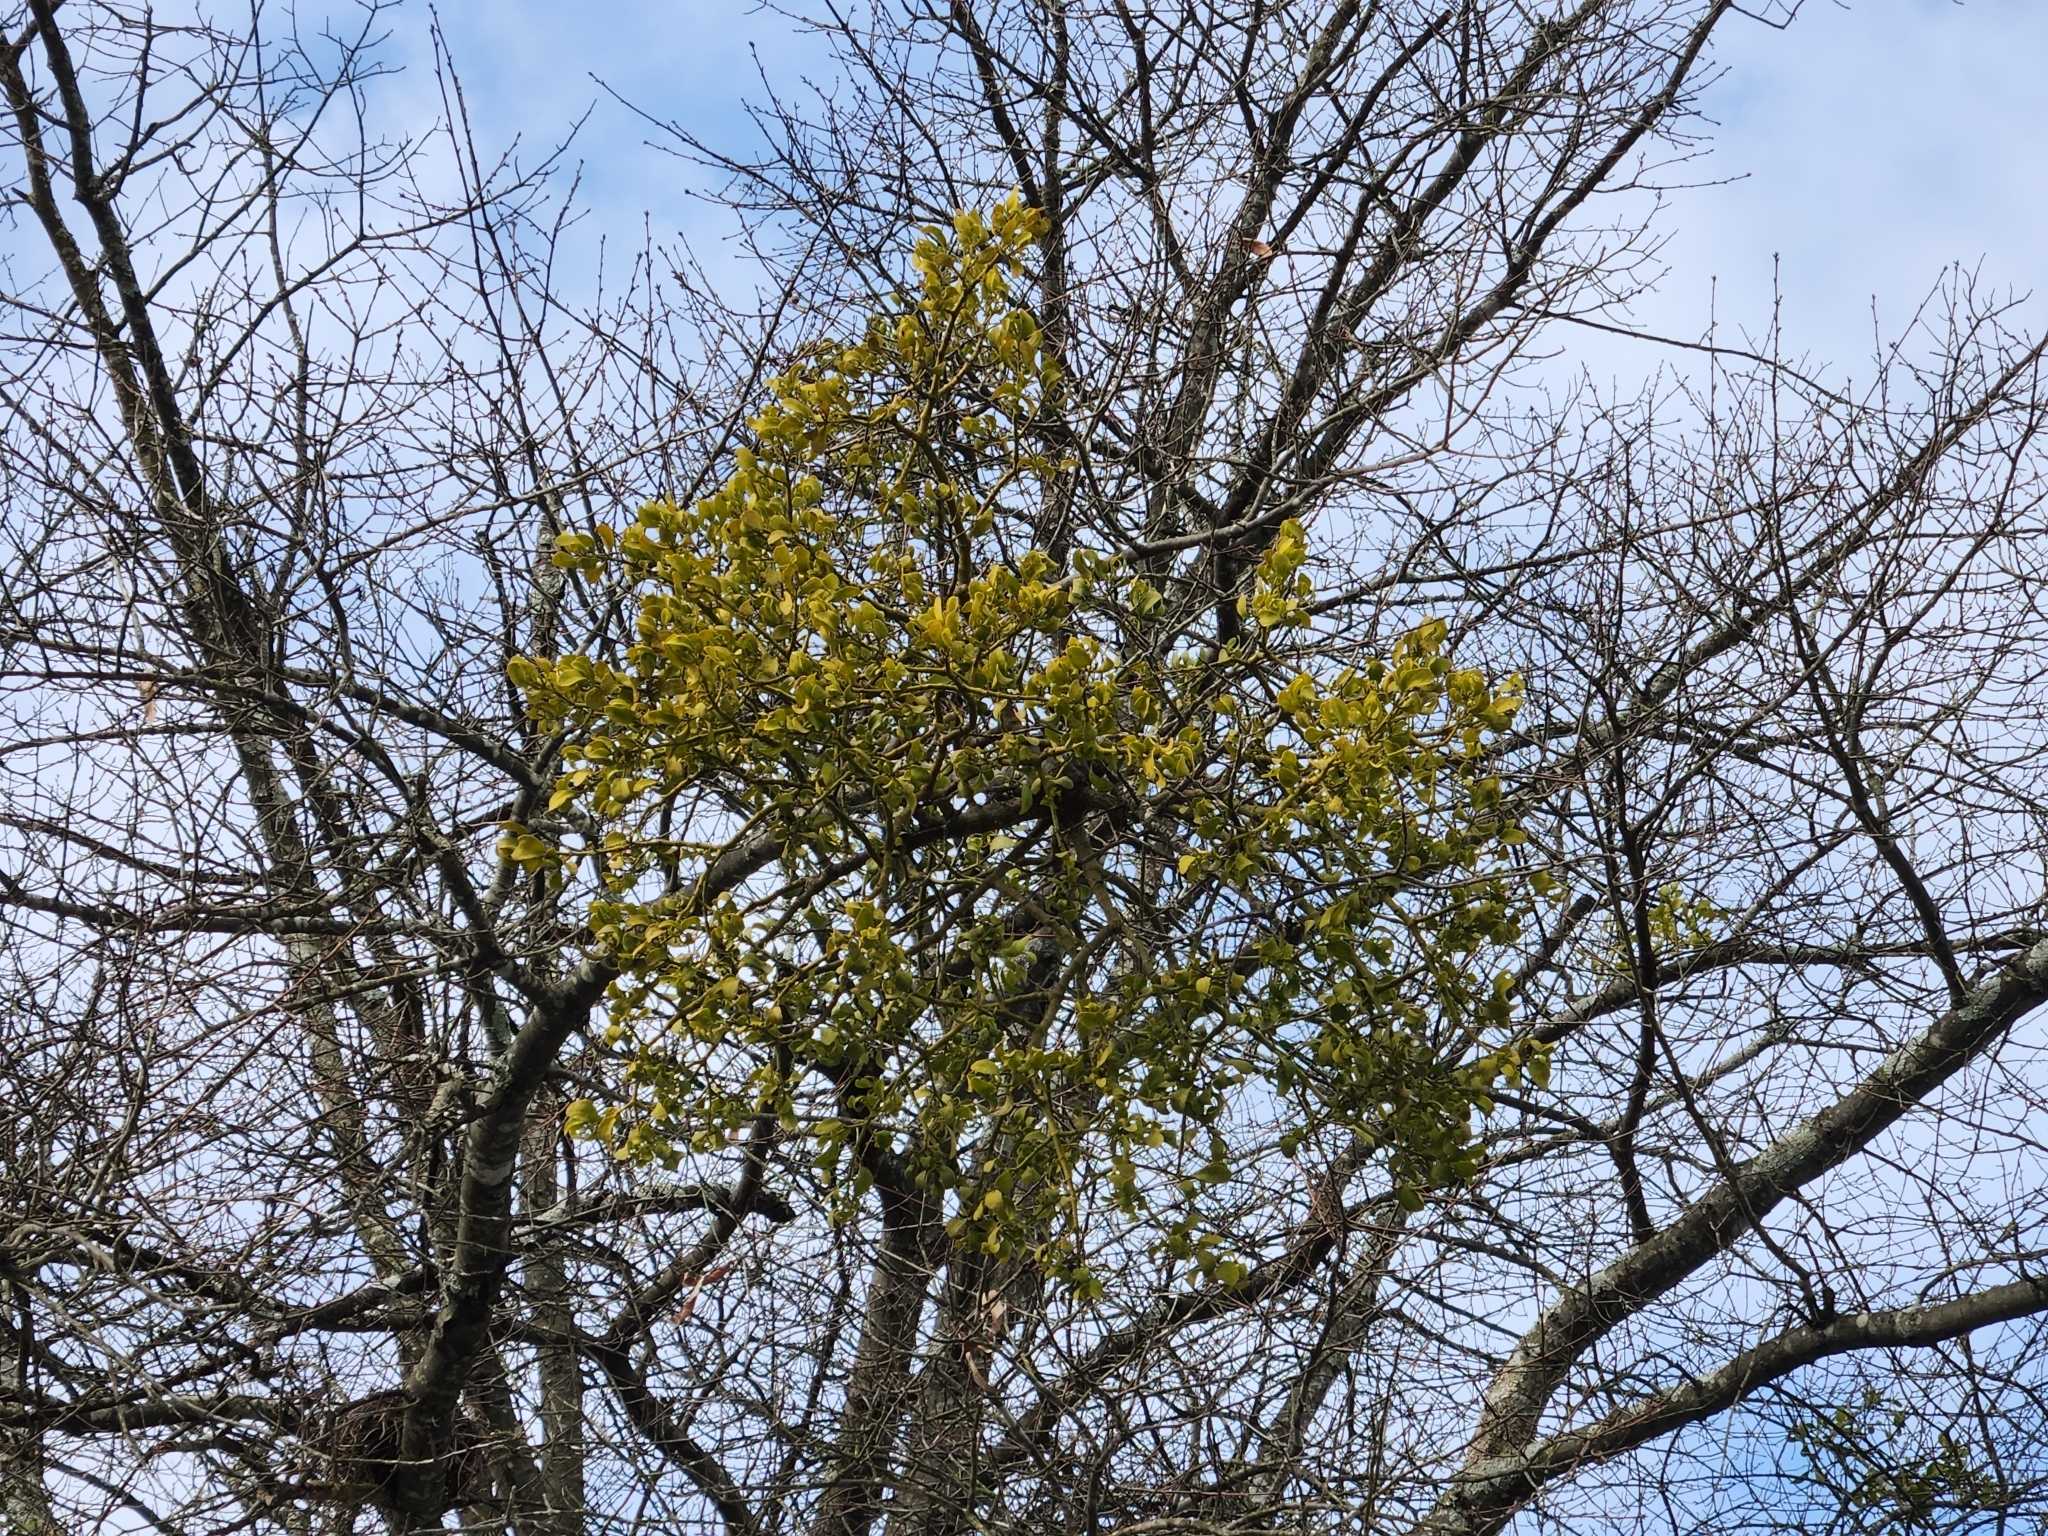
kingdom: Plantae
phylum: Tracheophyta
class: Magnoliopsida
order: Santalales
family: Viscaceae
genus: Phoradendron
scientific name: Phoradendron leucarpum
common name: Pacific mistletoe
